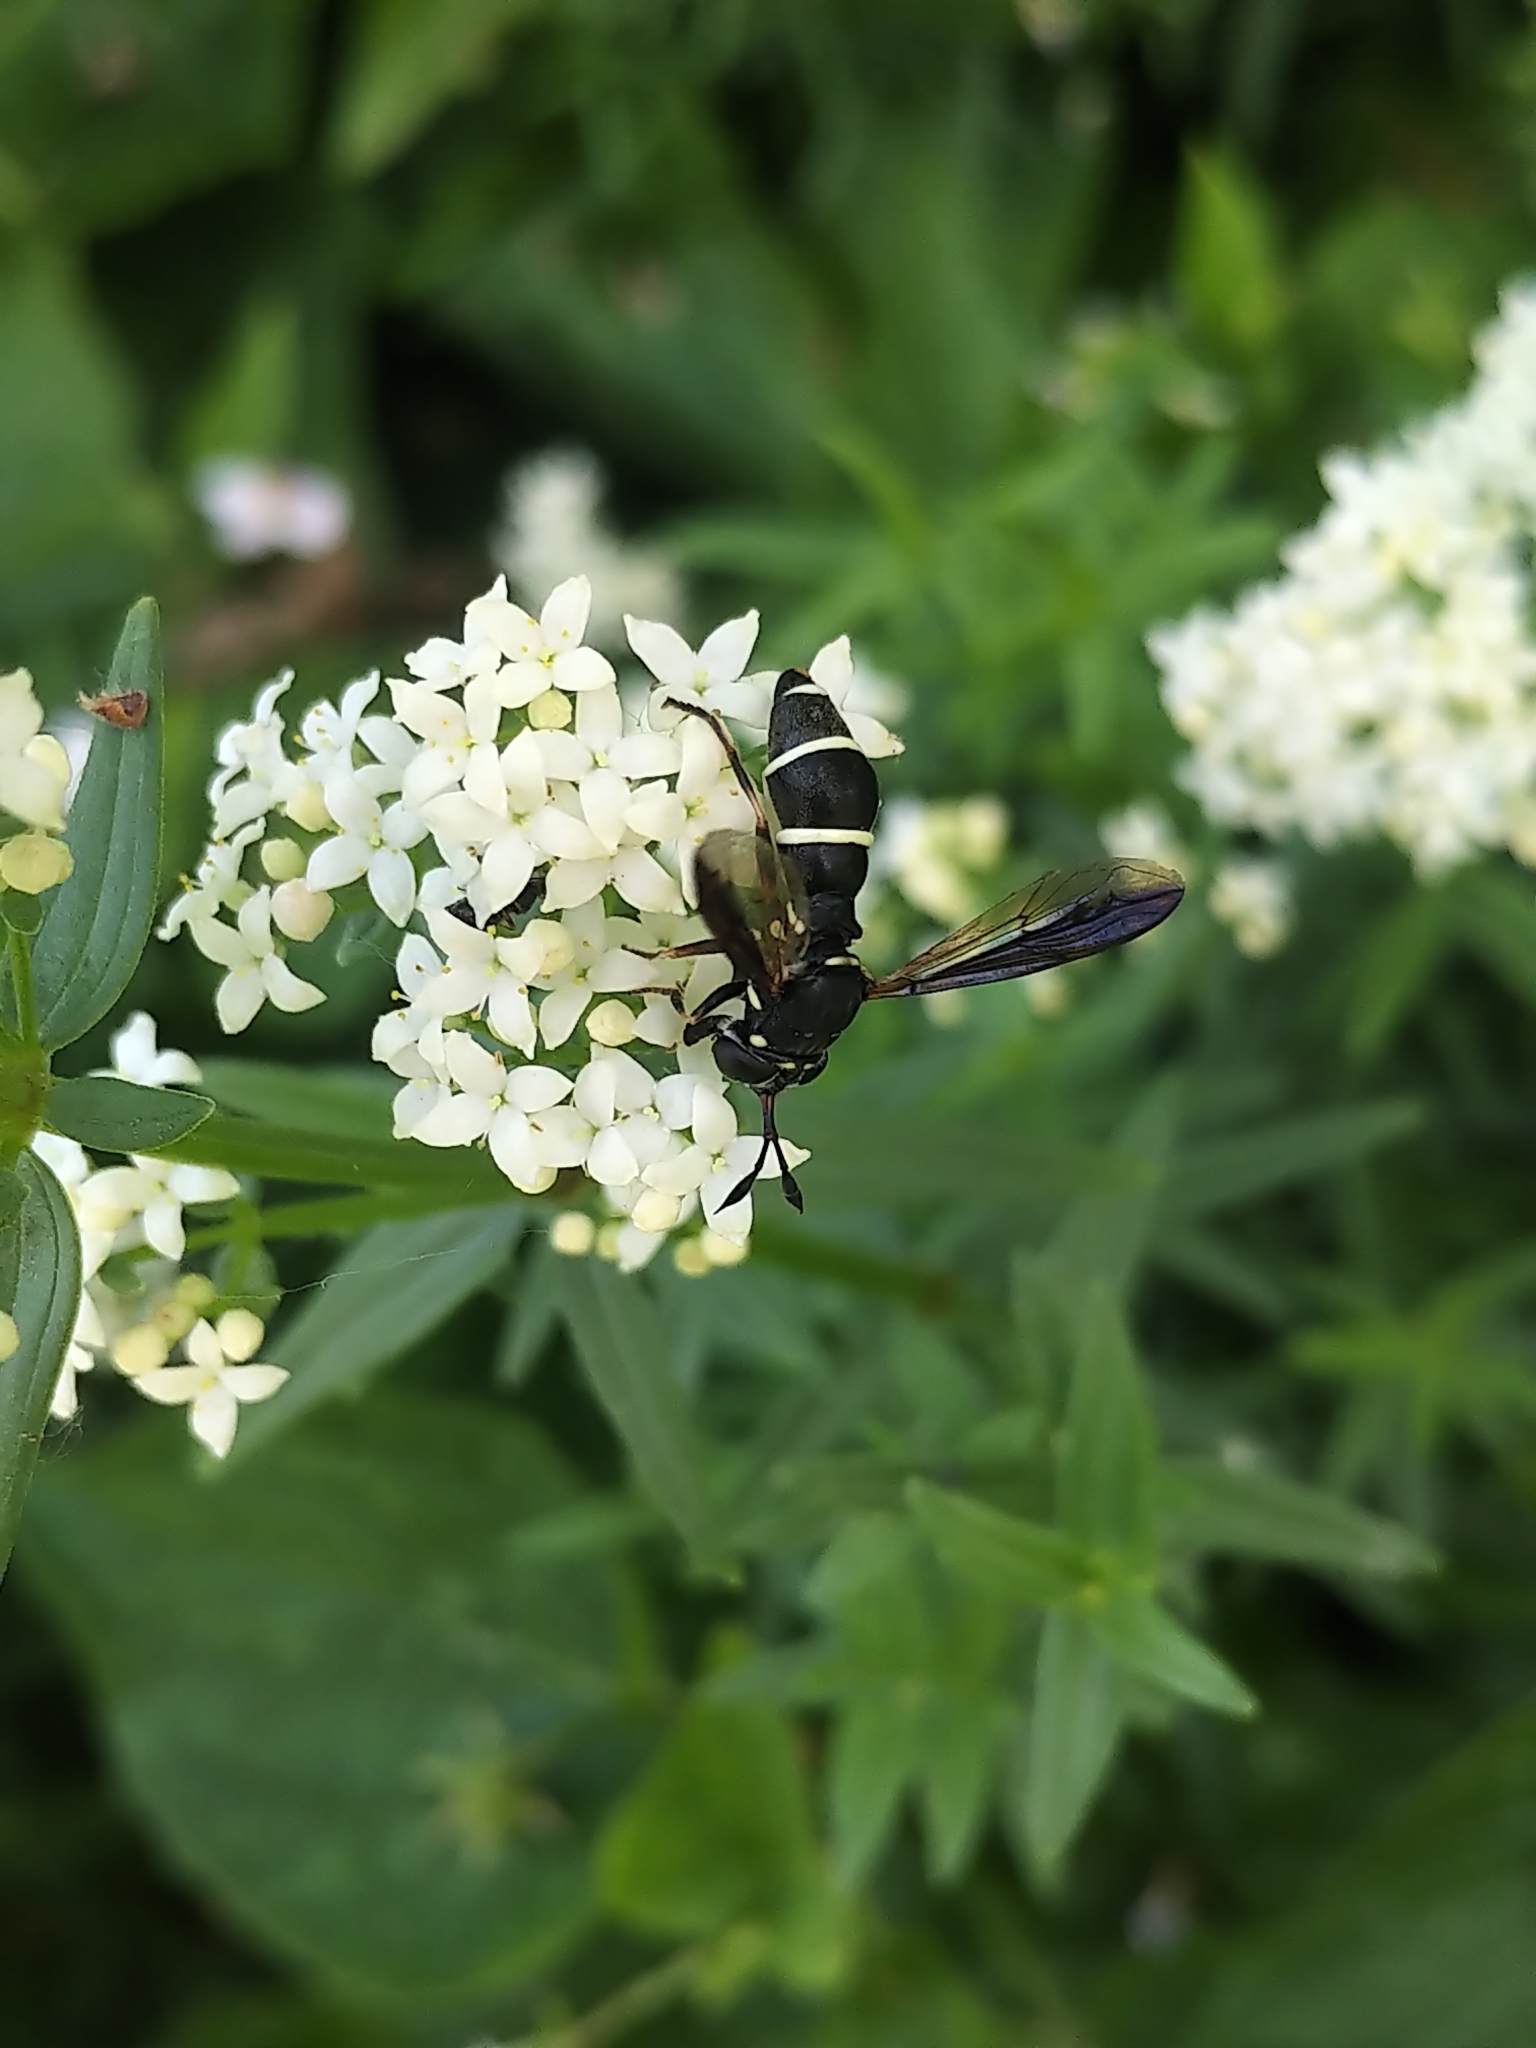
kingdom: Animalia
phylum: Arthropoda
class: Insecta
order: Diptera
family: Syrphidae
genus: Ceriana
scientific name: Ceriana abbreviata
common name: Northern wasp fly
